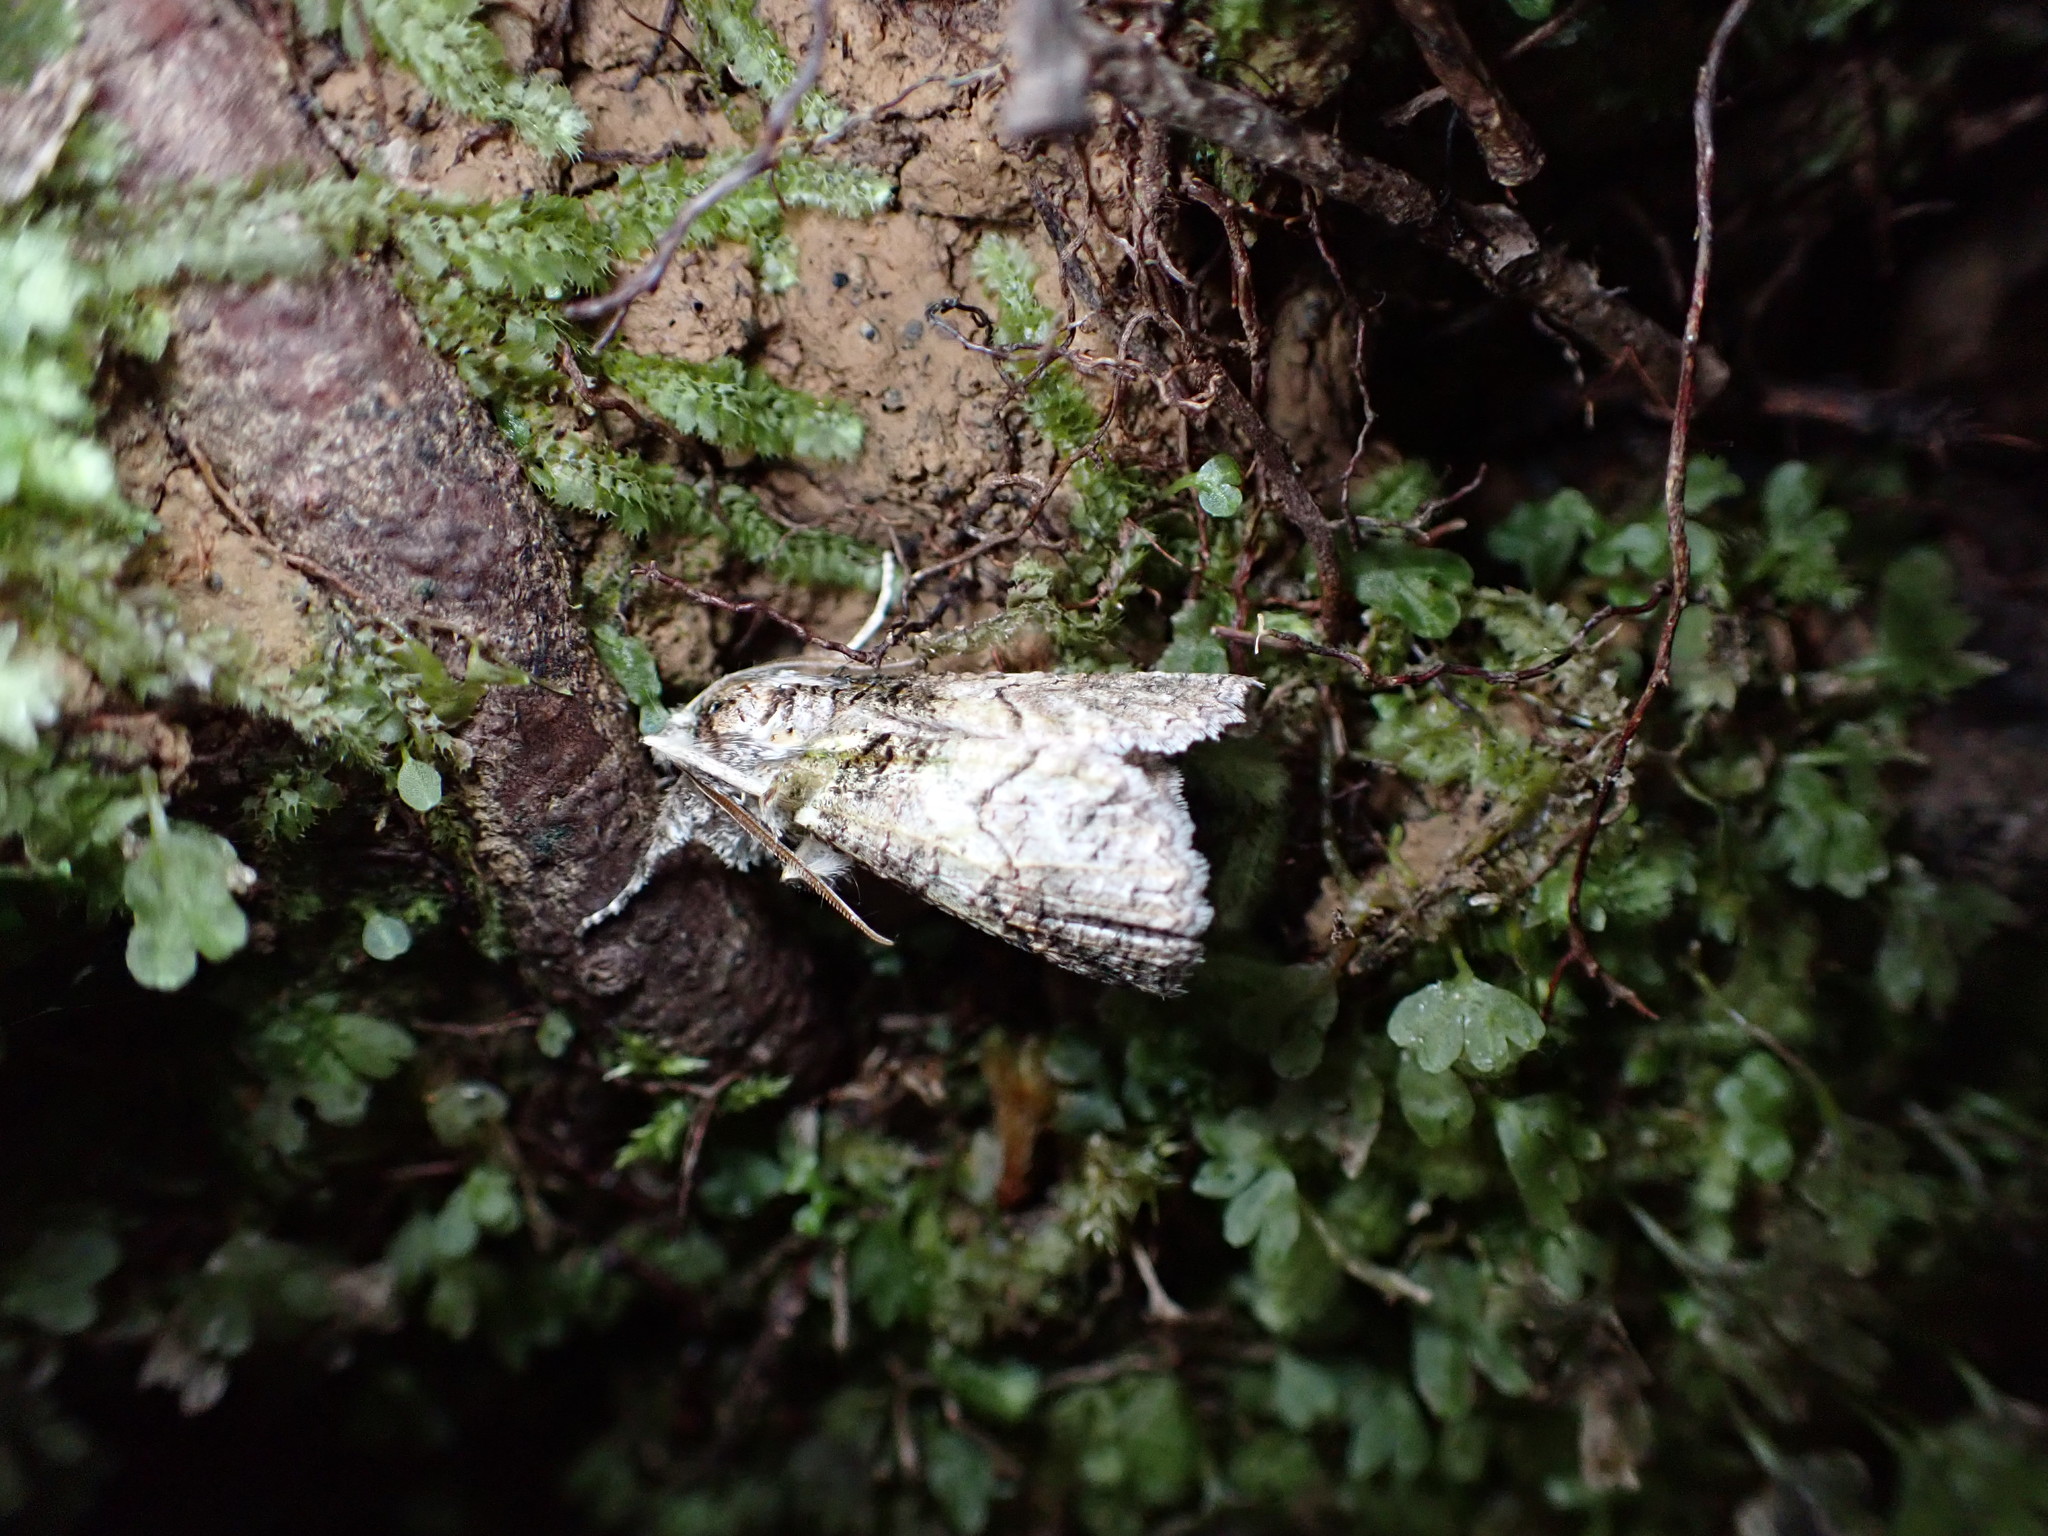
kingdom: Animalia
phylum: Arthropoda
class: Insecta
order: Lepidoptera
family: Geometridae
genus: Declana
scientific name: Declana floccosa
